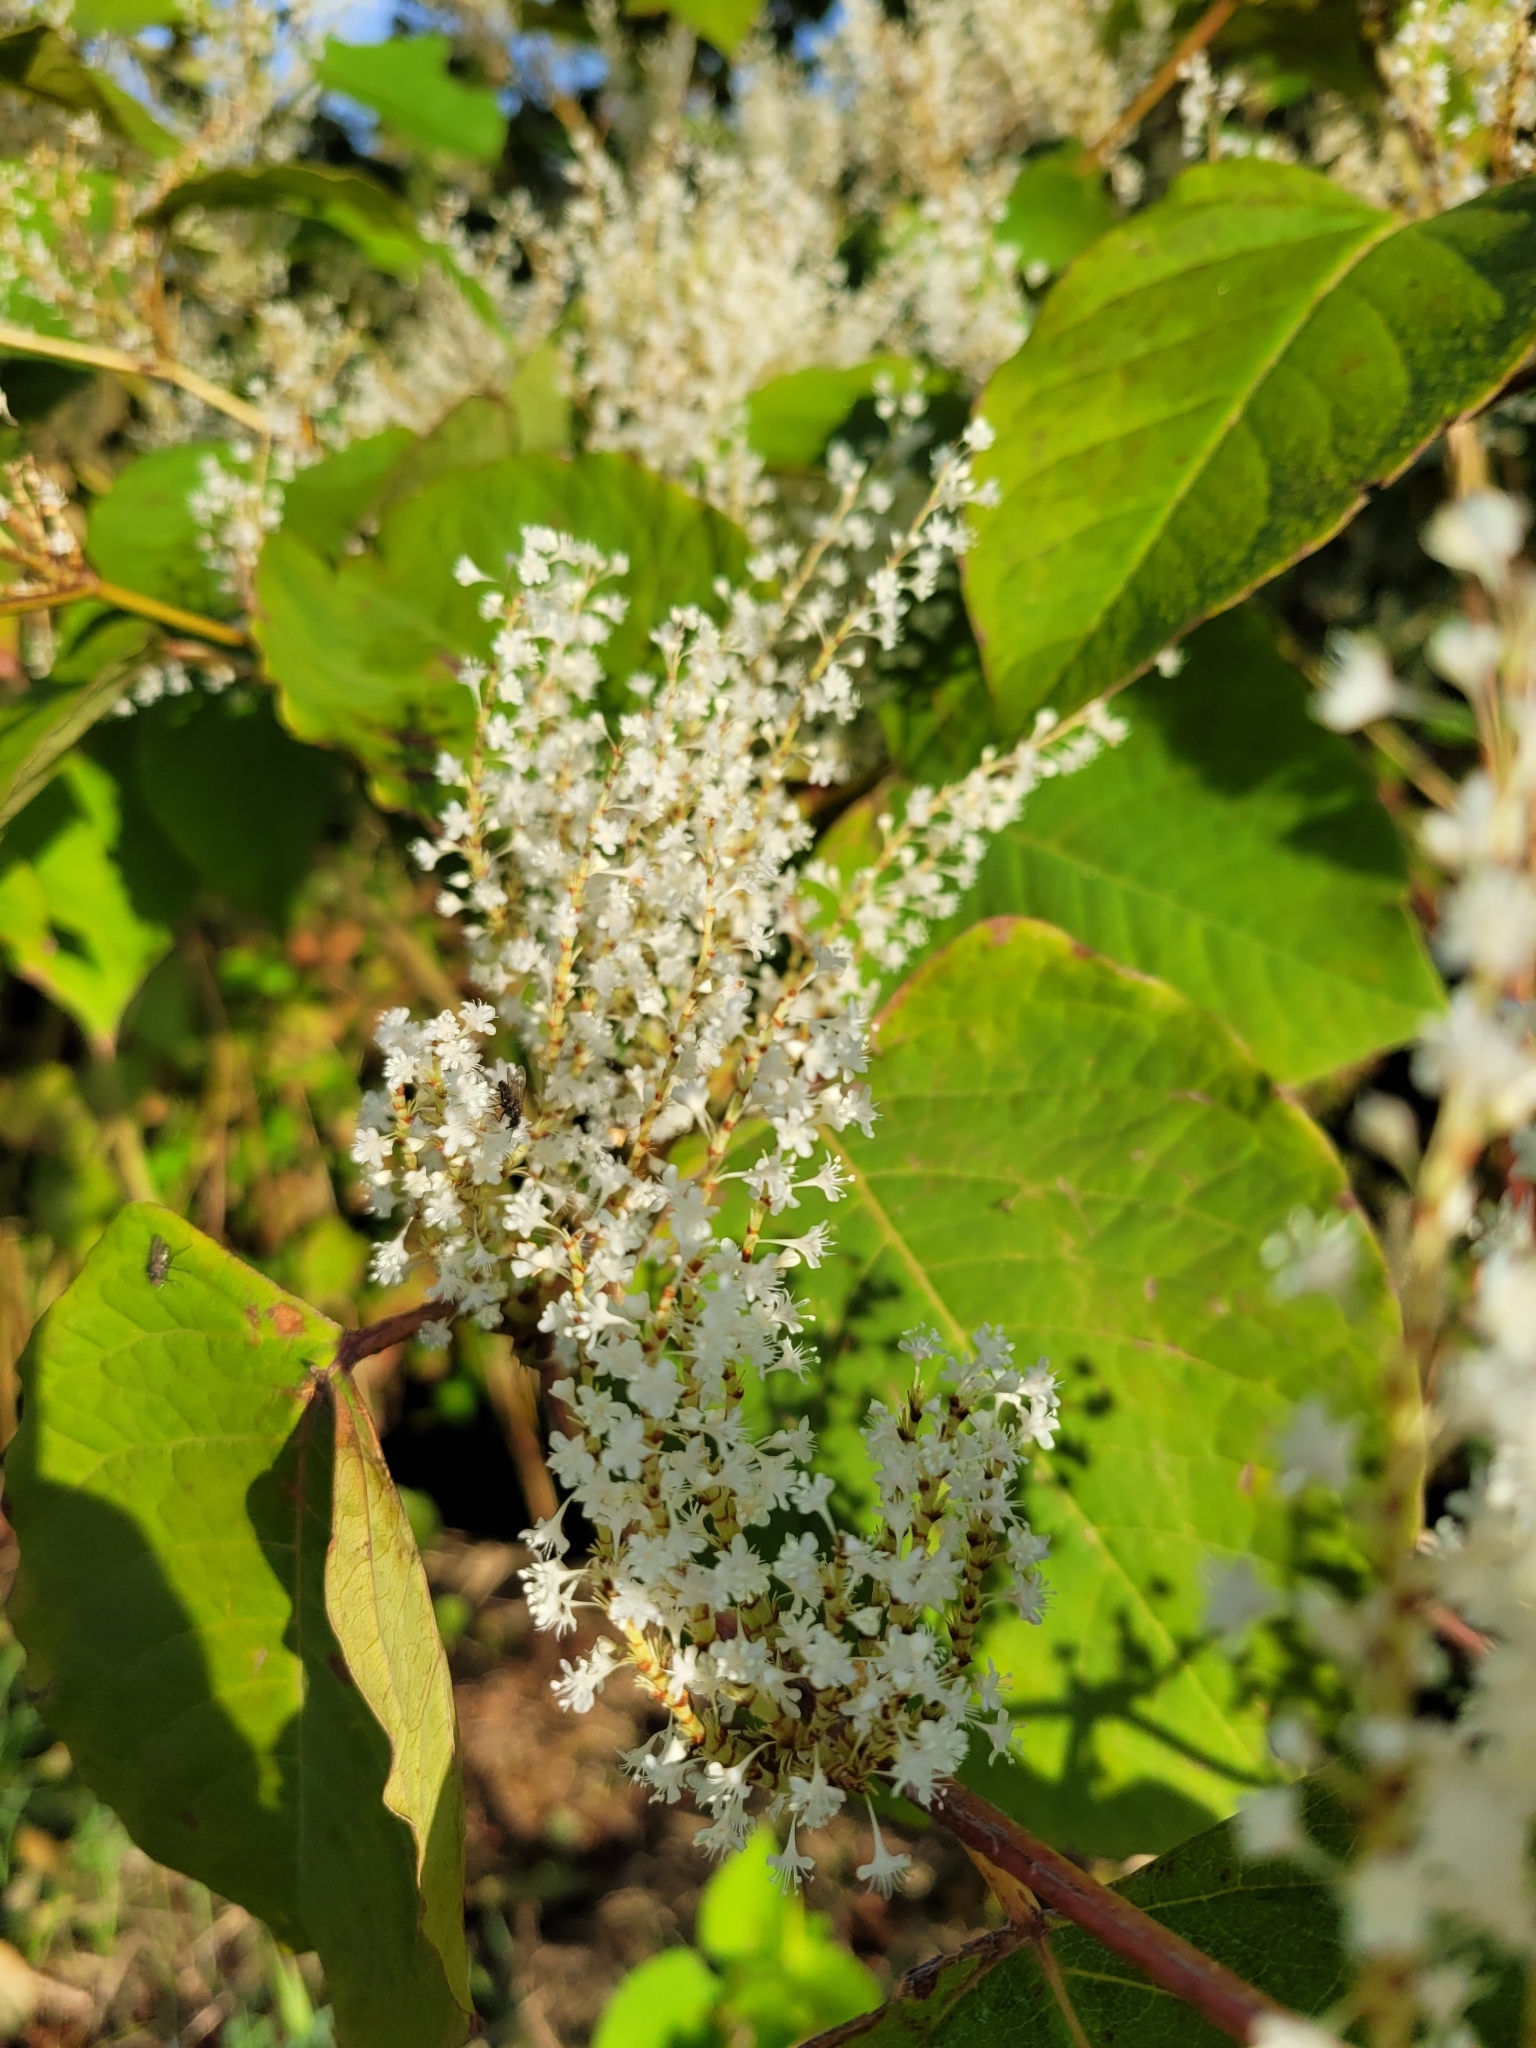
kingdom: Plantae
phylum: Tracheophyta
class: Magnoliopsida
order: Caryophyllales
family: Polygonaceae
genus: Reynoutria
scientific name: Reynoutria japonica
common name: Japanese knotweed
